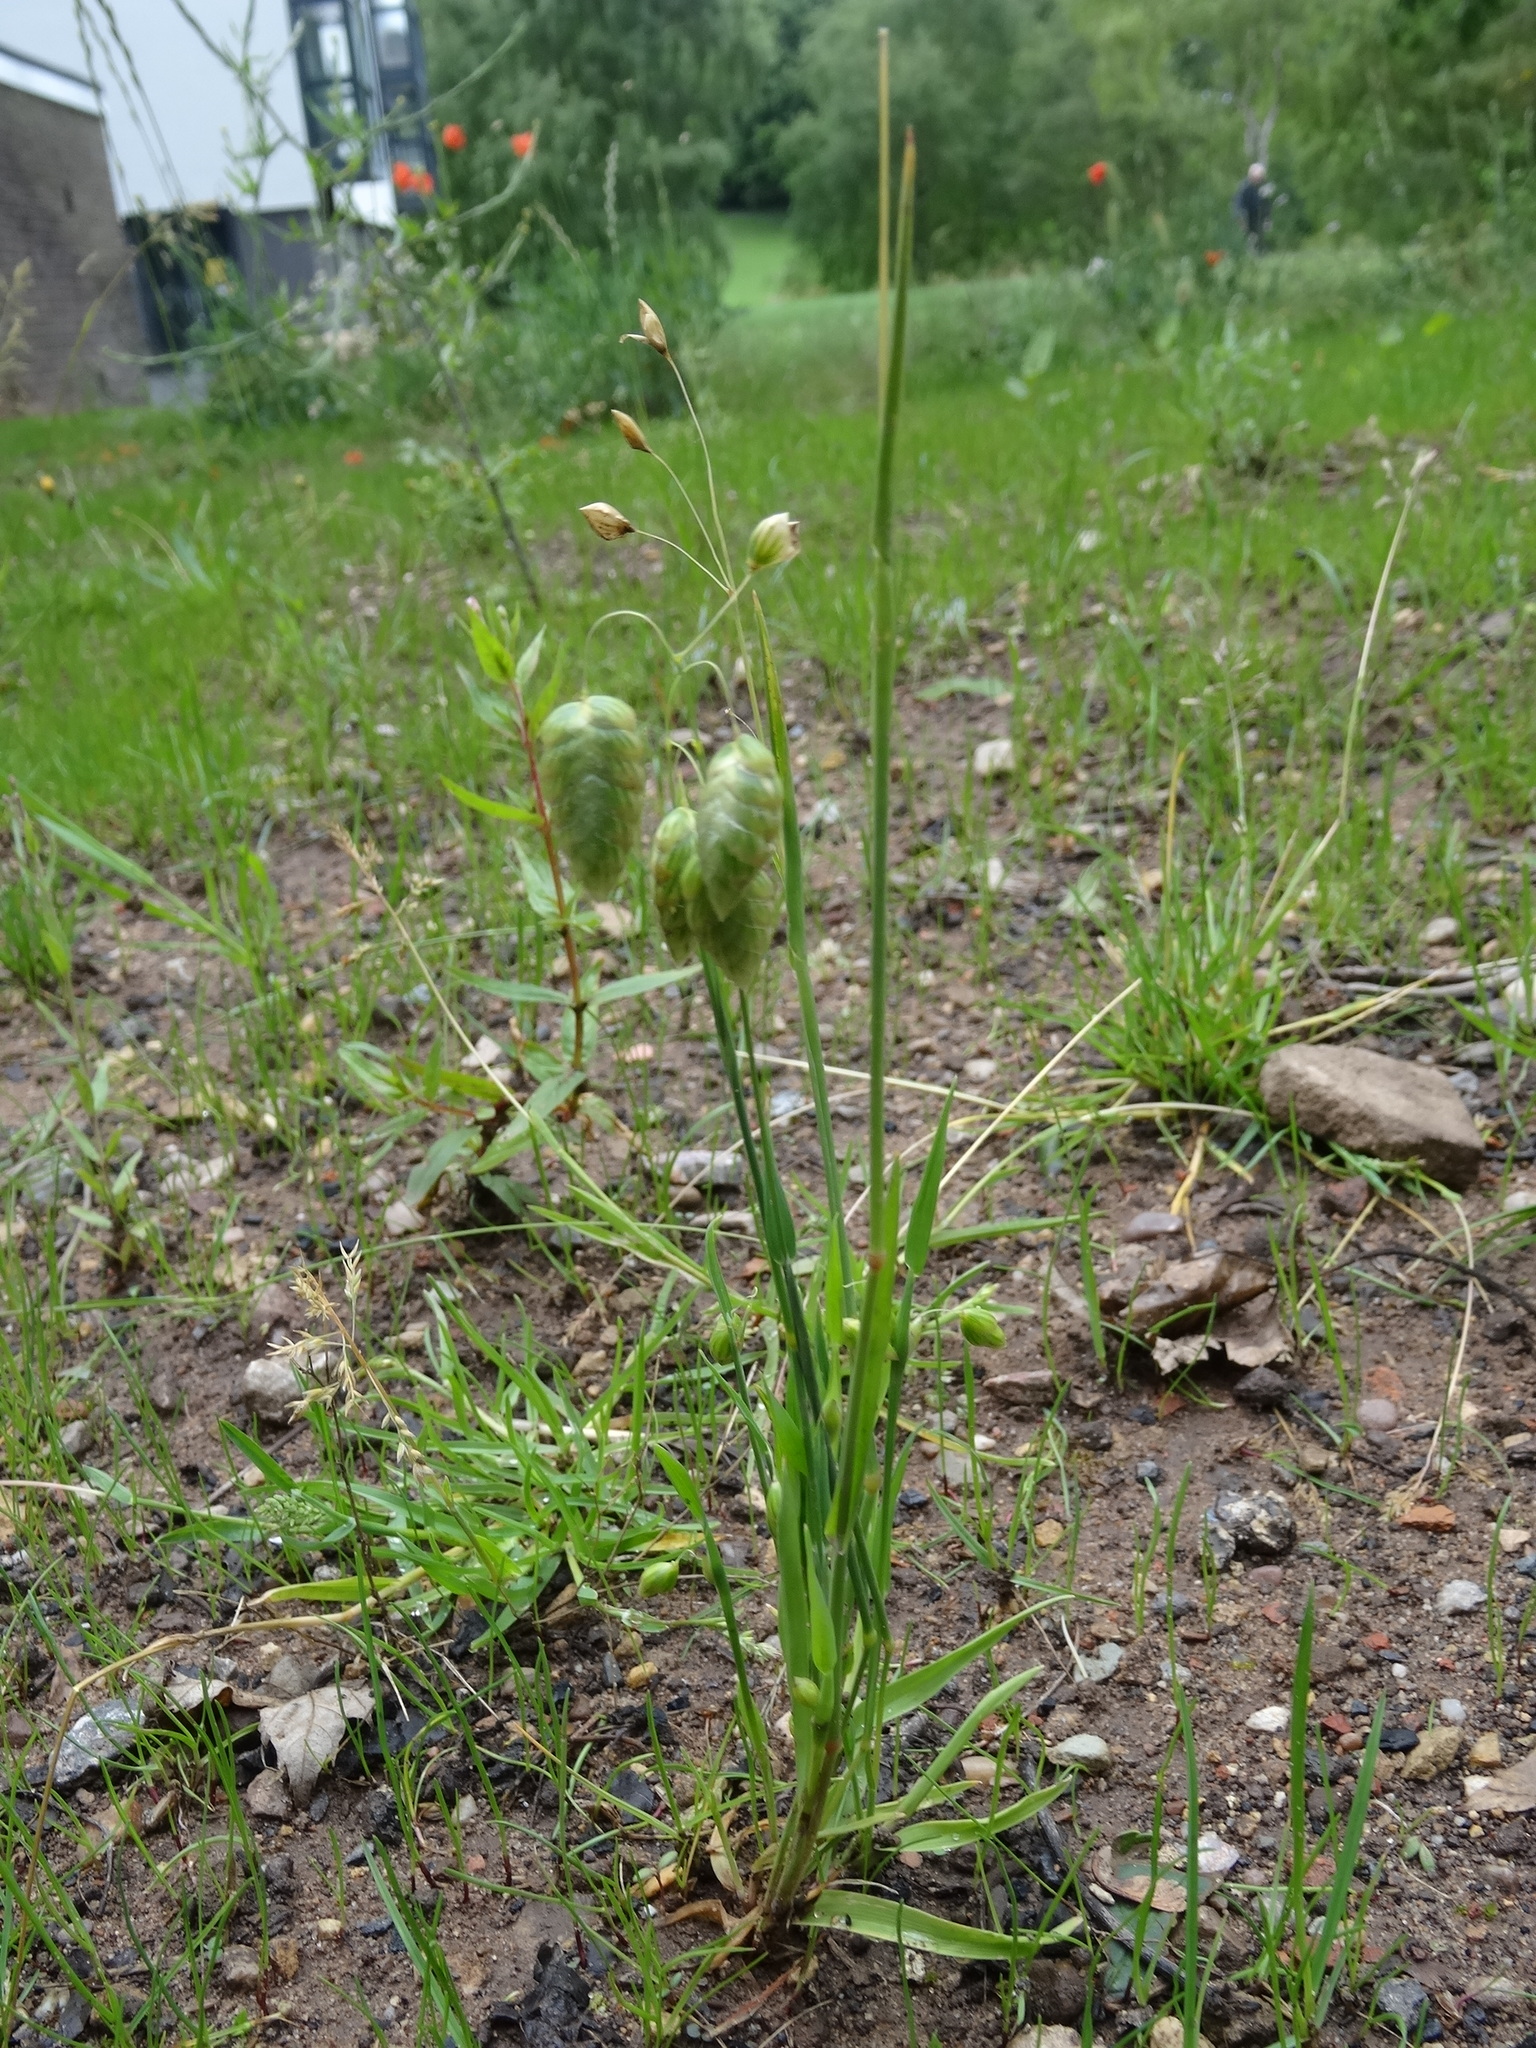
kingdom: Plantae
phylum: Tracheophyta
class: Liliopsida
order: Poales
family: Poaceae
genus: Briza
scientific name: Briza maxima
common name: Big quakinggrass
